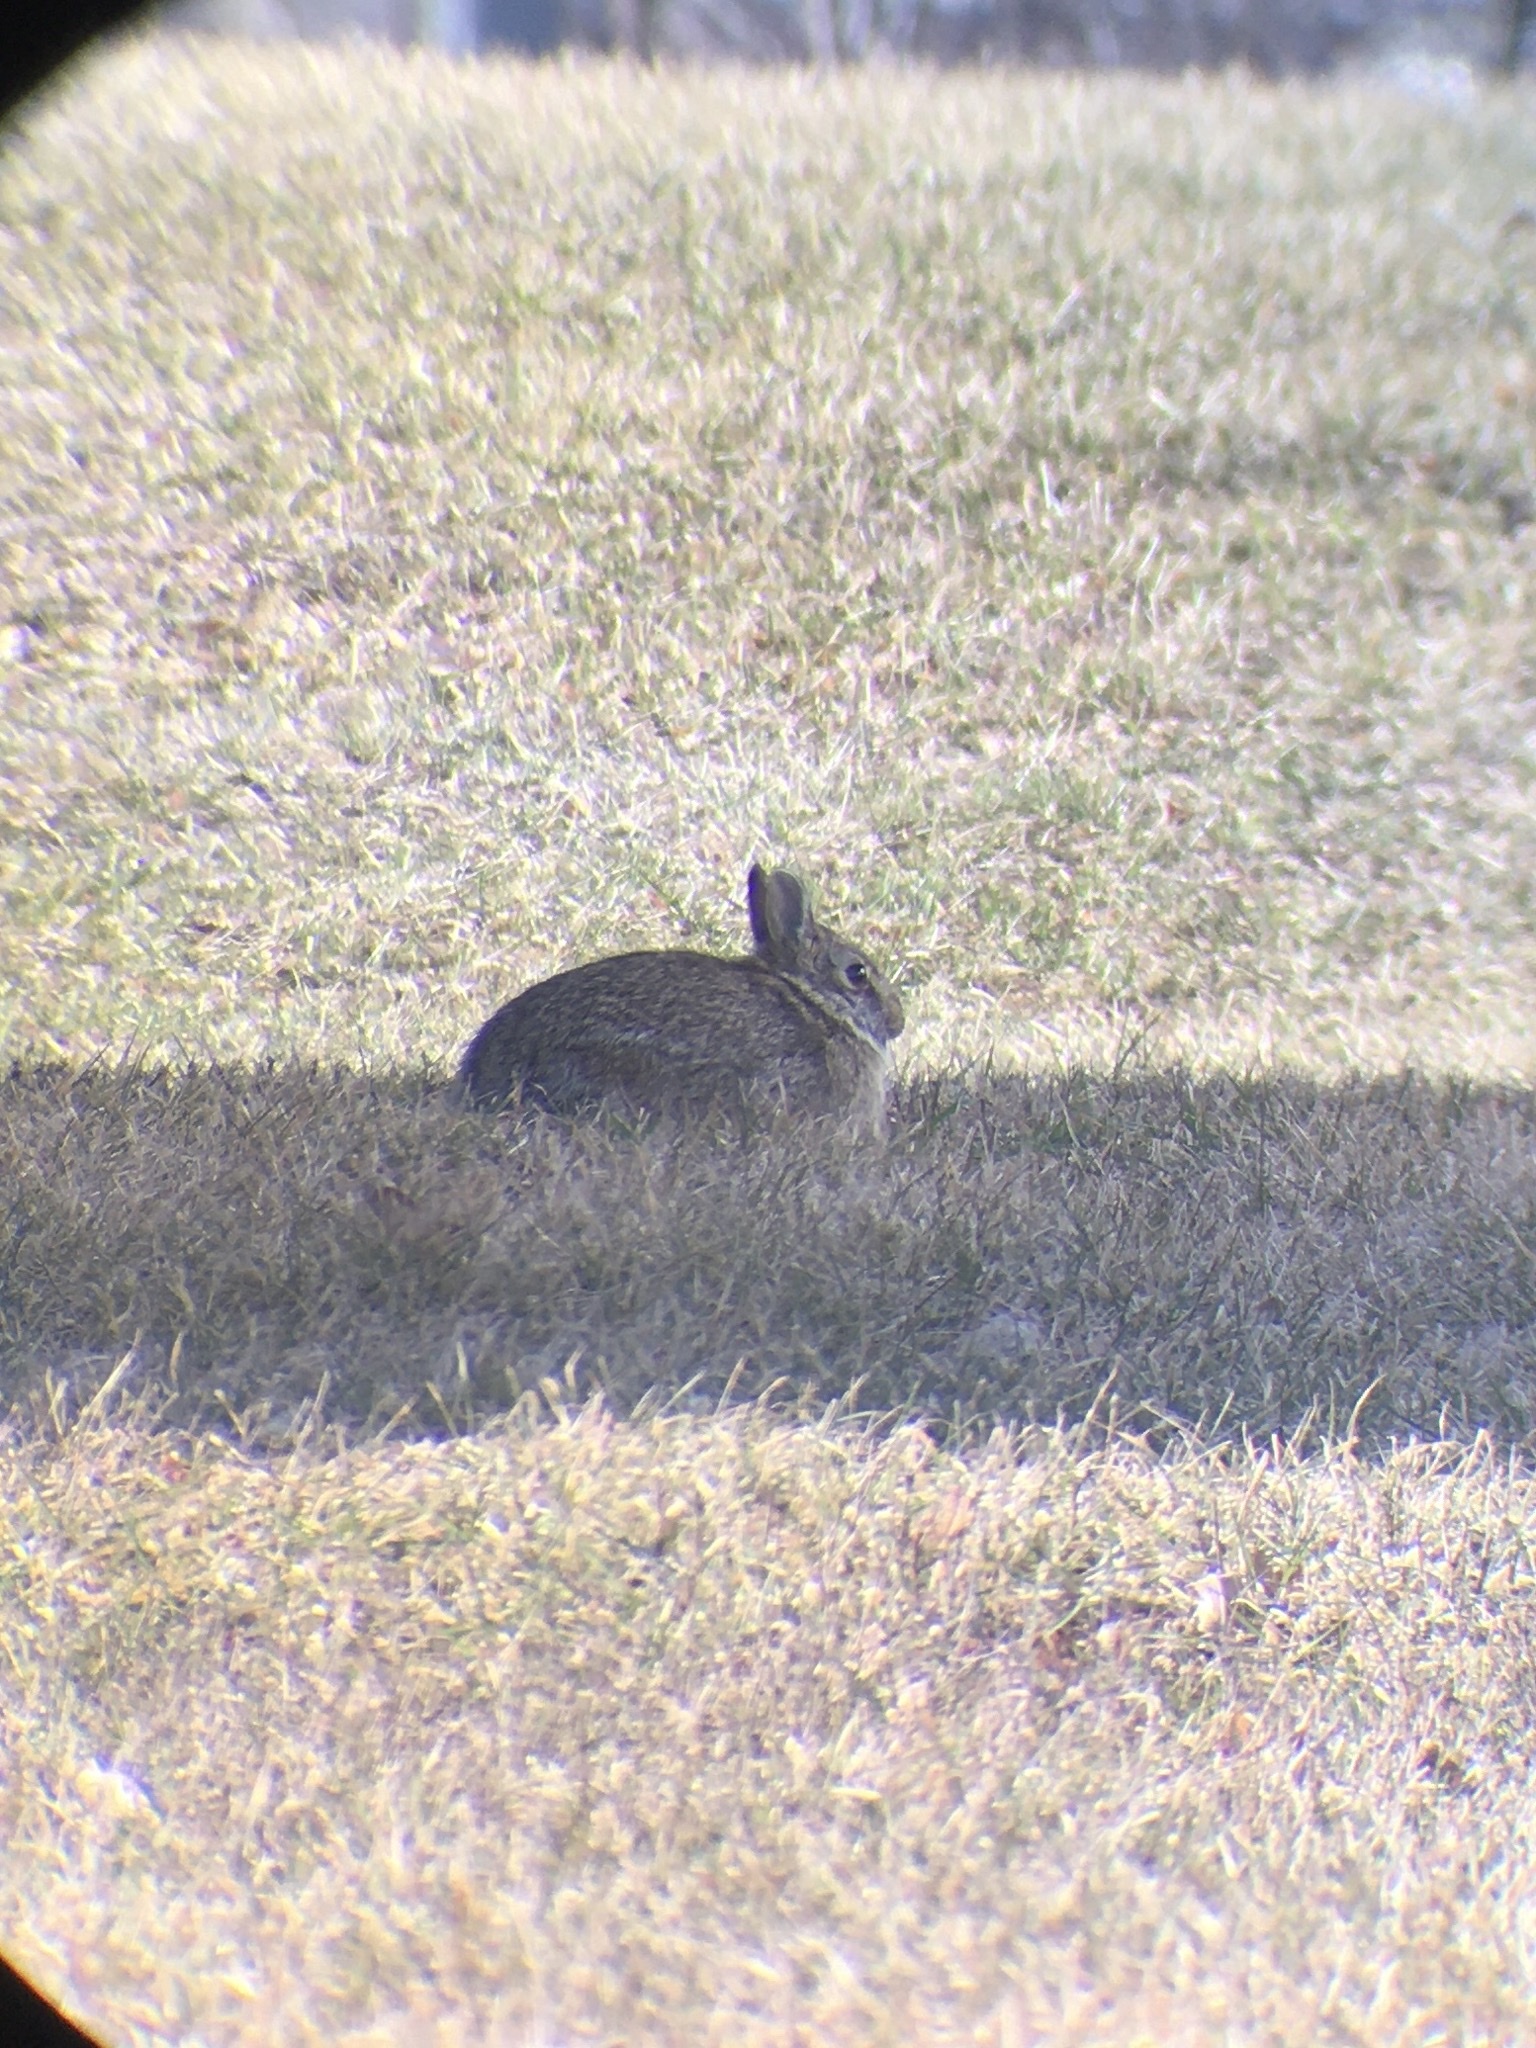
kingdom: Animalia
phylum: Chordata
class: Mammalia
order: Lagomorpha
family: Leporidae
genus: Sylvilagus
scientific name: Sylvilagus floridanus
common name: Eastern cottontail
